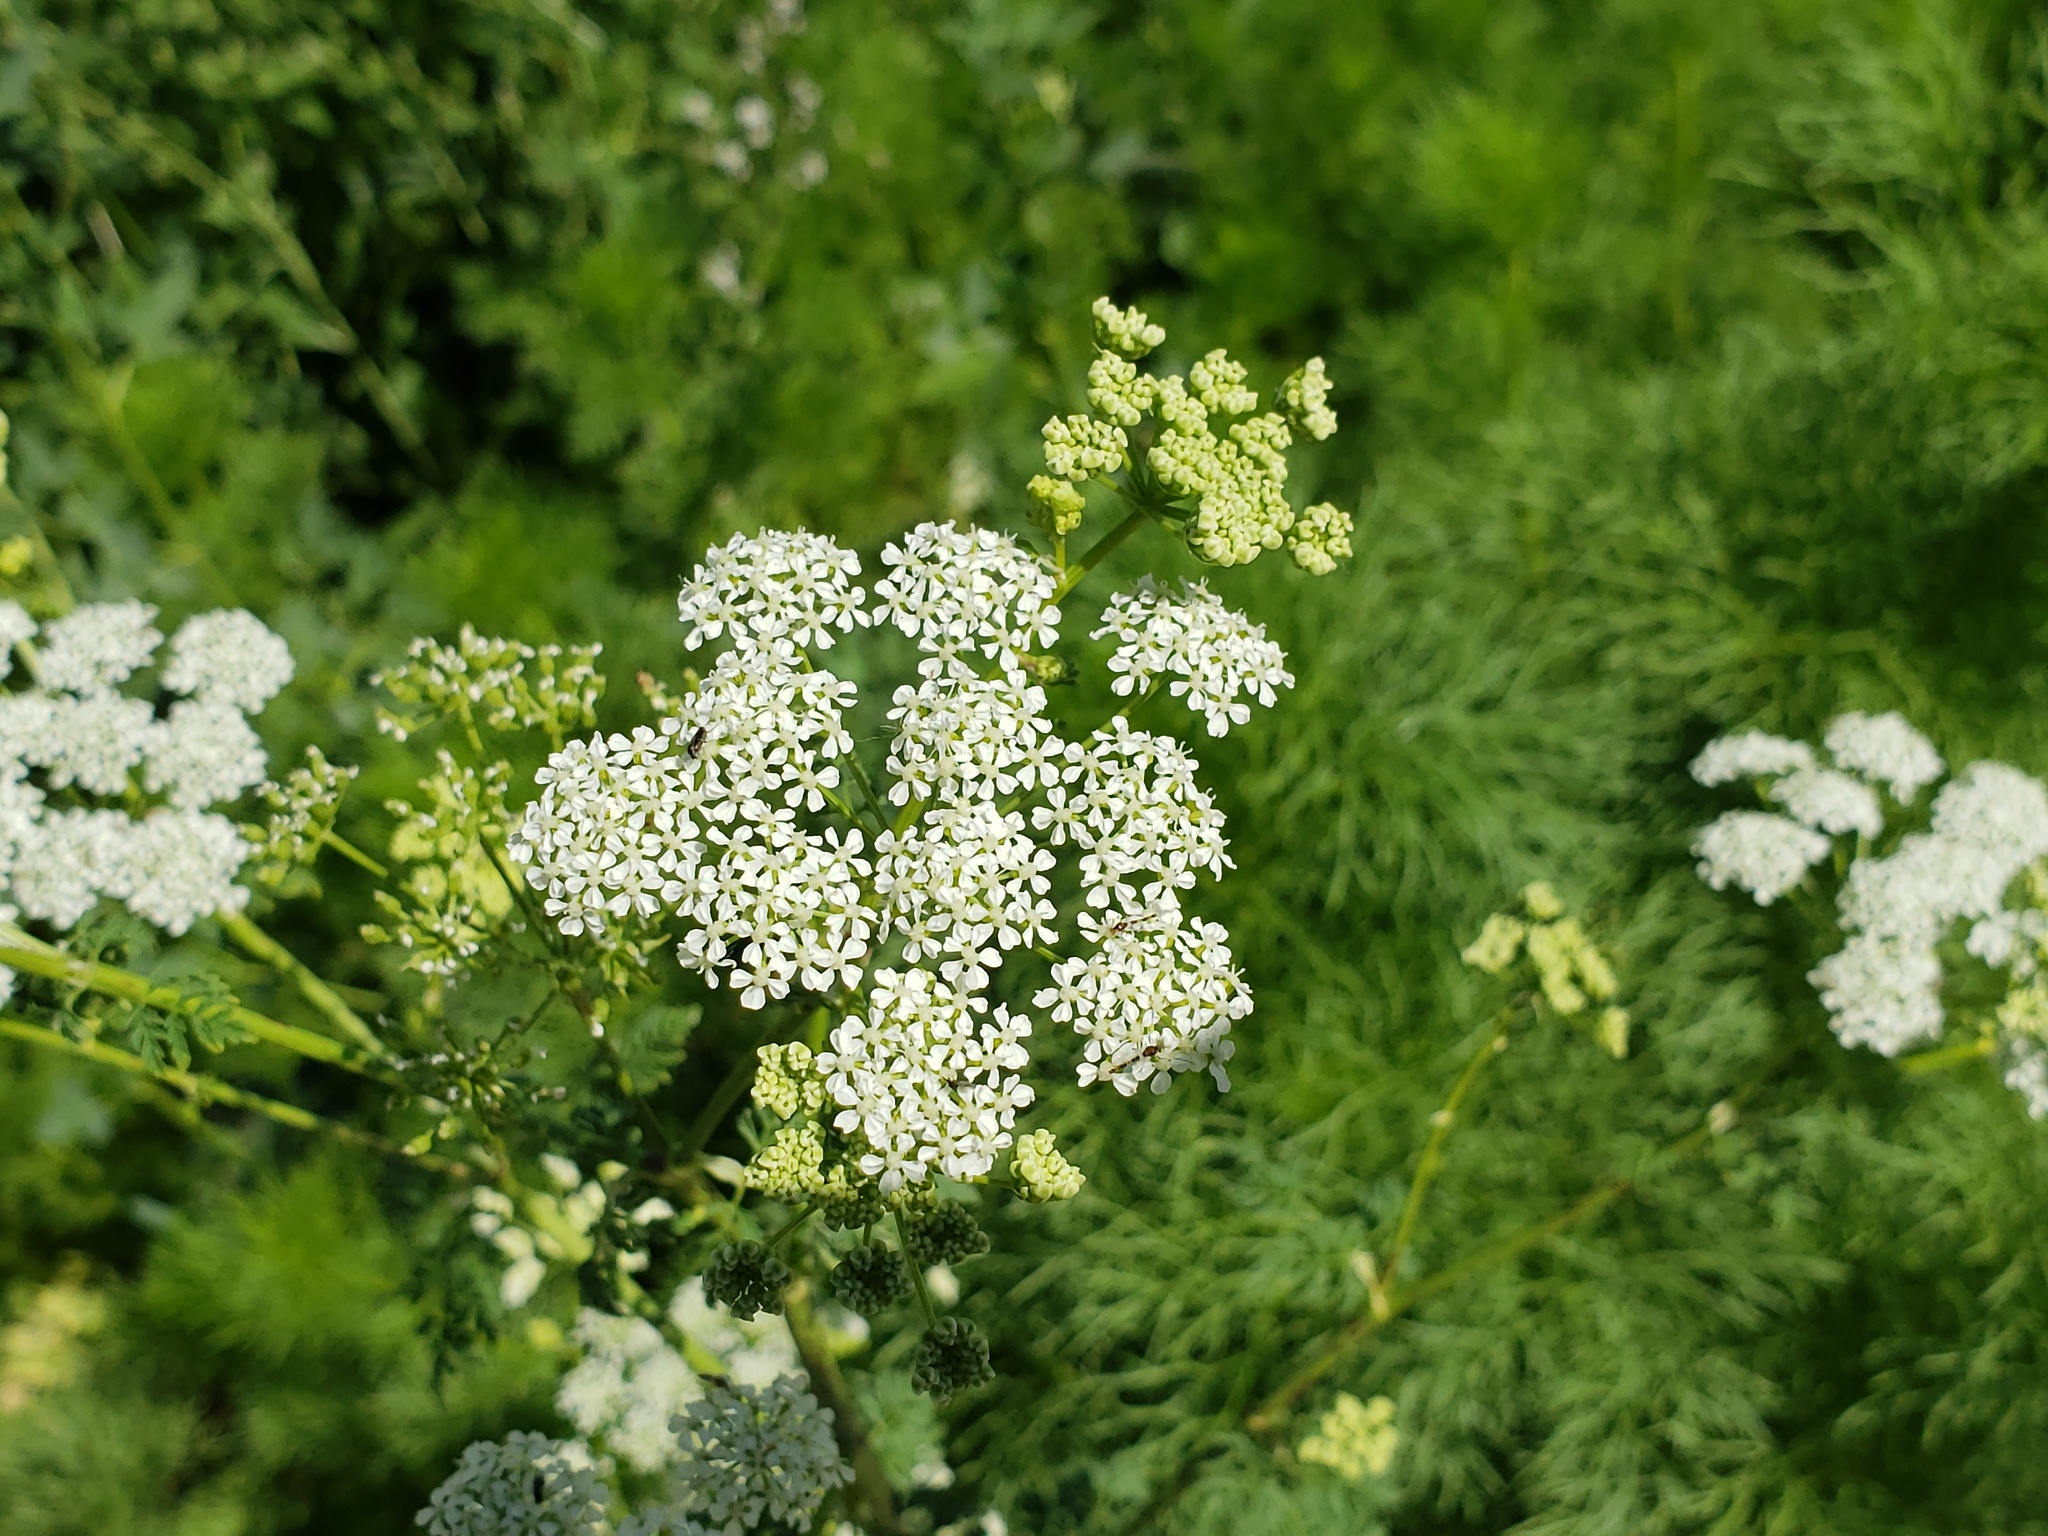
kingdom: Plantae
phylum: Tracheophyta
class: Magnoliopsida
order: Apiales
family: Apiaceae
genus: Conium
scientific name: Conium maculatum
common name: Hemlock
